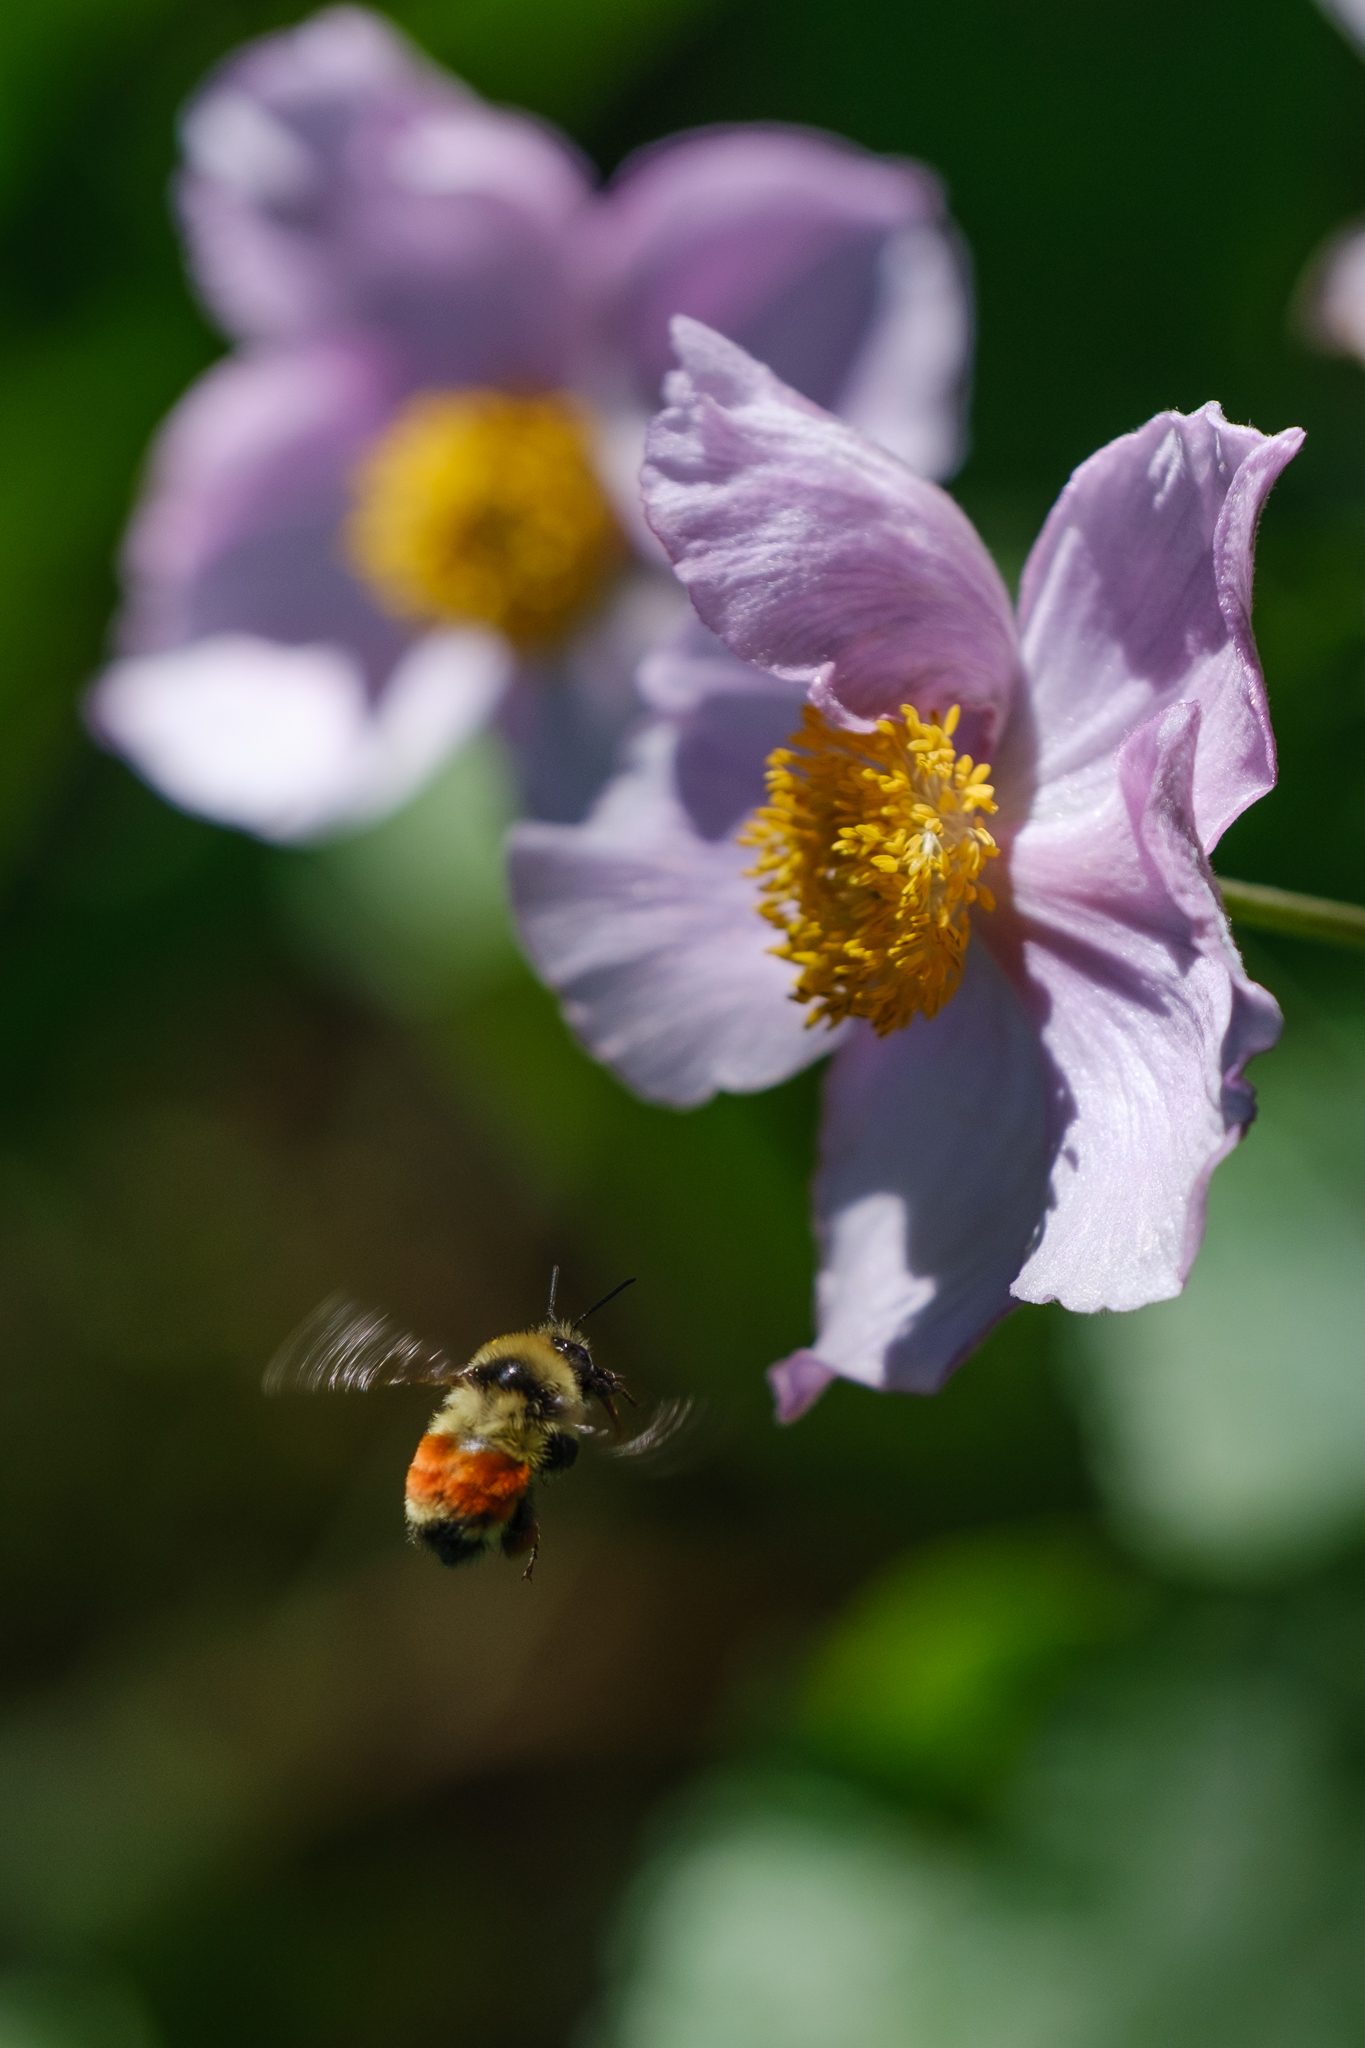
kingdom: Animalia
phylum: Arthropoda
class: Insecta
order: Hymenoptera
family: Apidae
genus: Bombus
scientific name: Bombus huntii
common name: Hunt bumble bee
